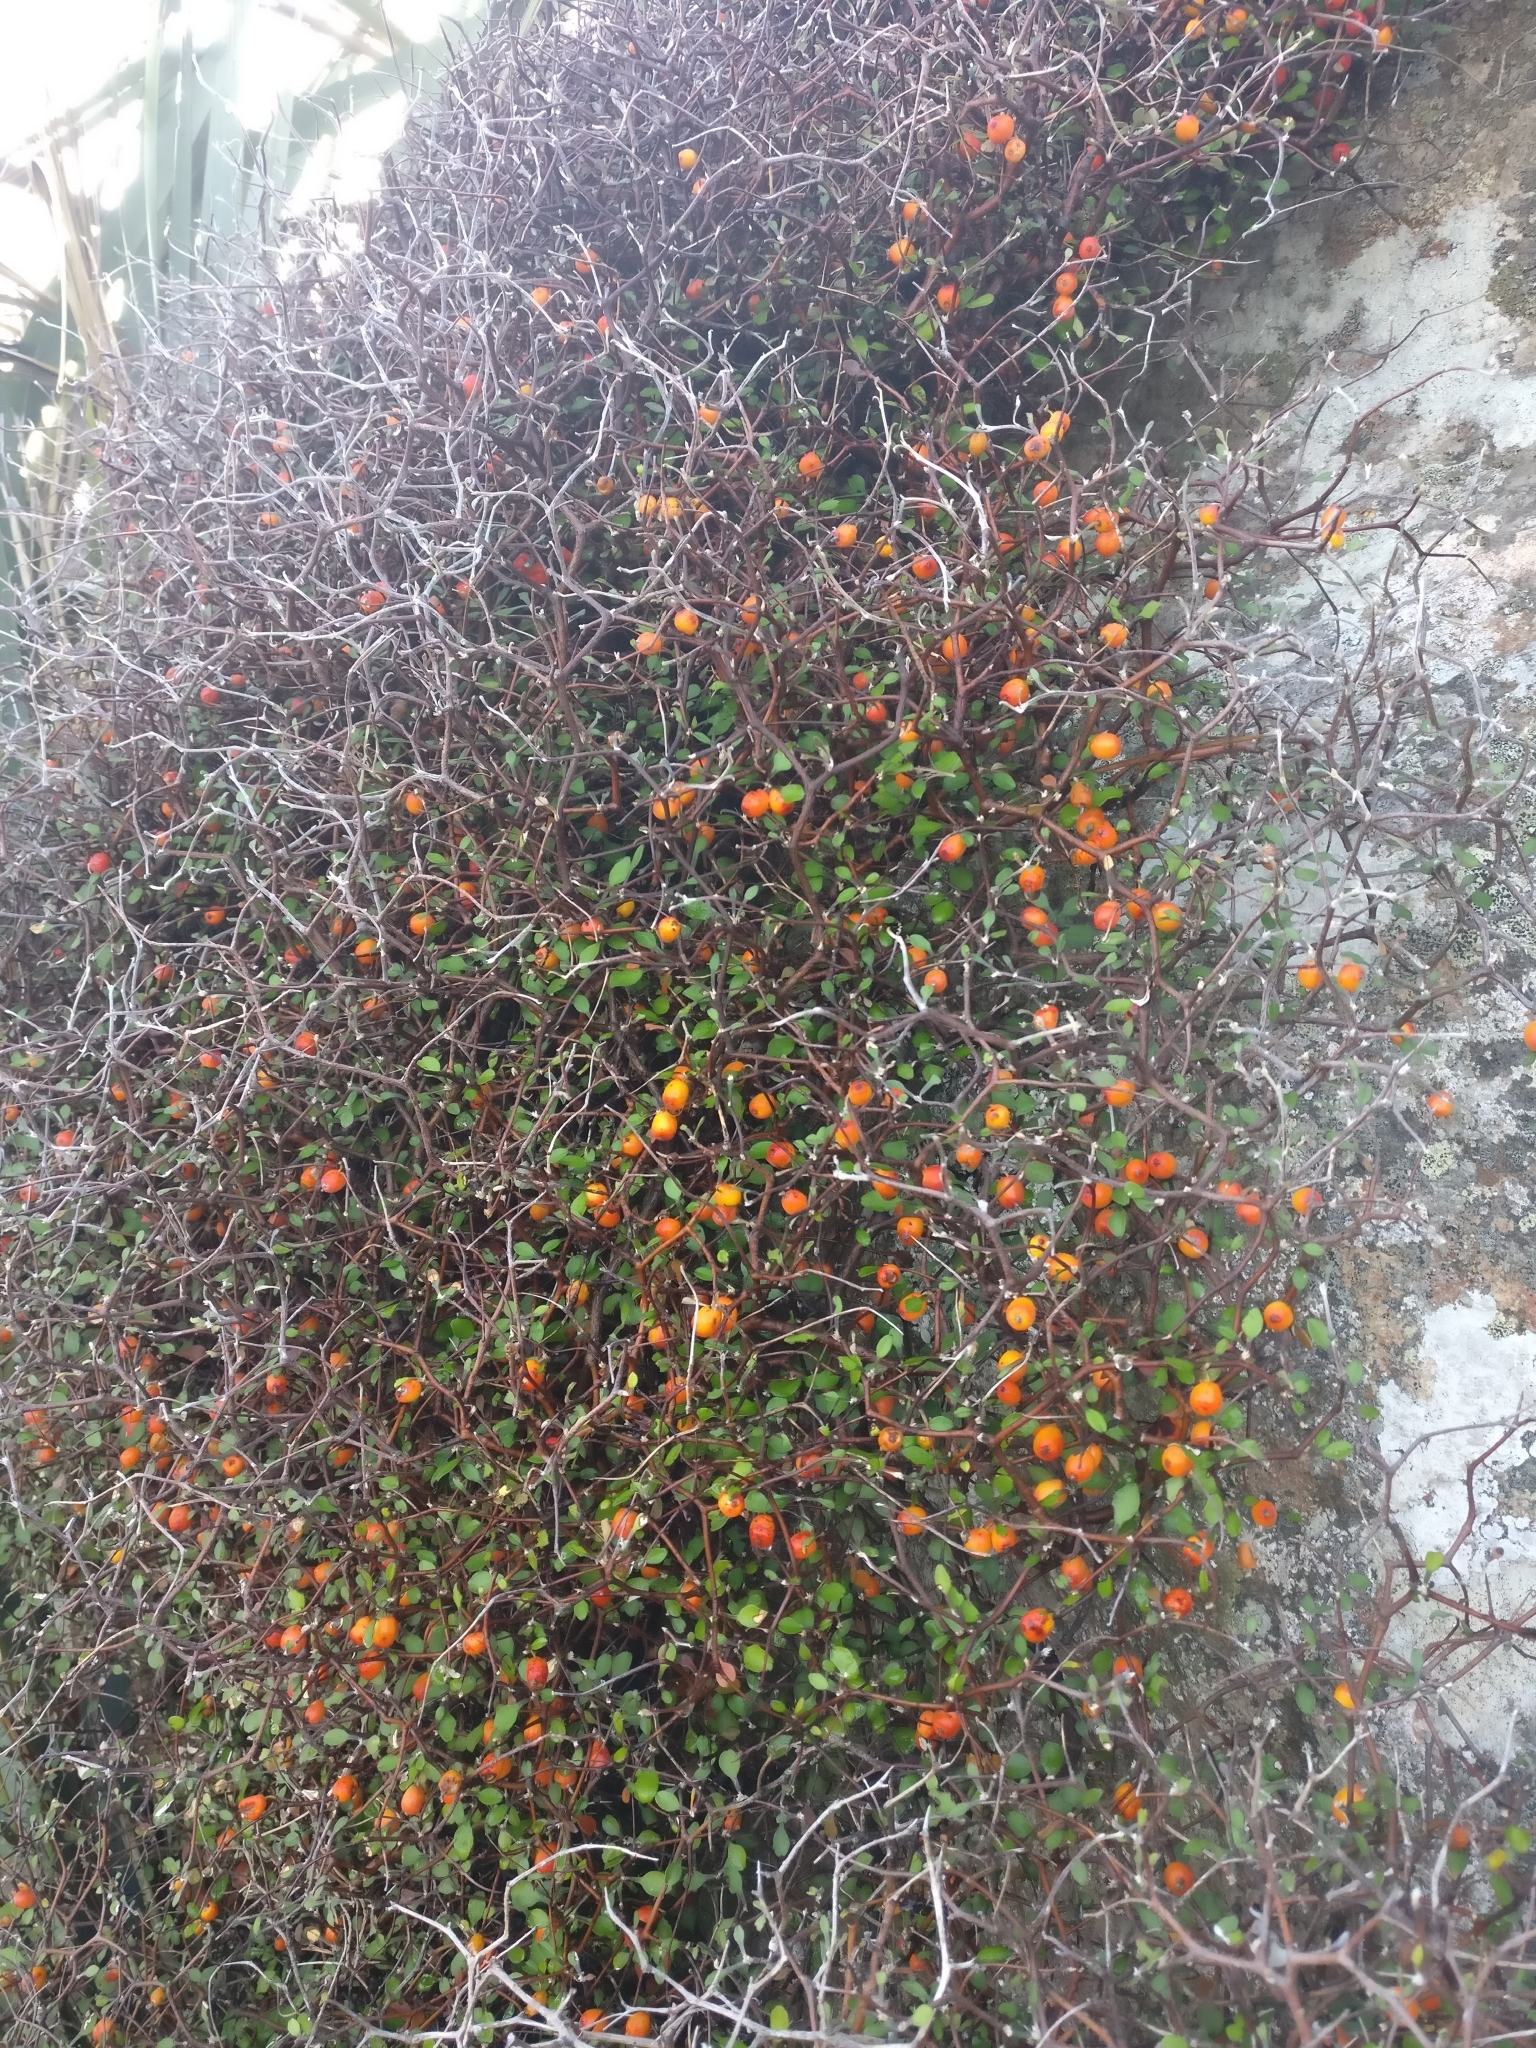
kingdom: Plantae
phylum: Tracheophyta
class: Magnoliopsida
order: Asterales
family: Argophyllaceae
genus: Corokia
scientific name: Corokia cotoneaster
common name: Wire nettingbush
